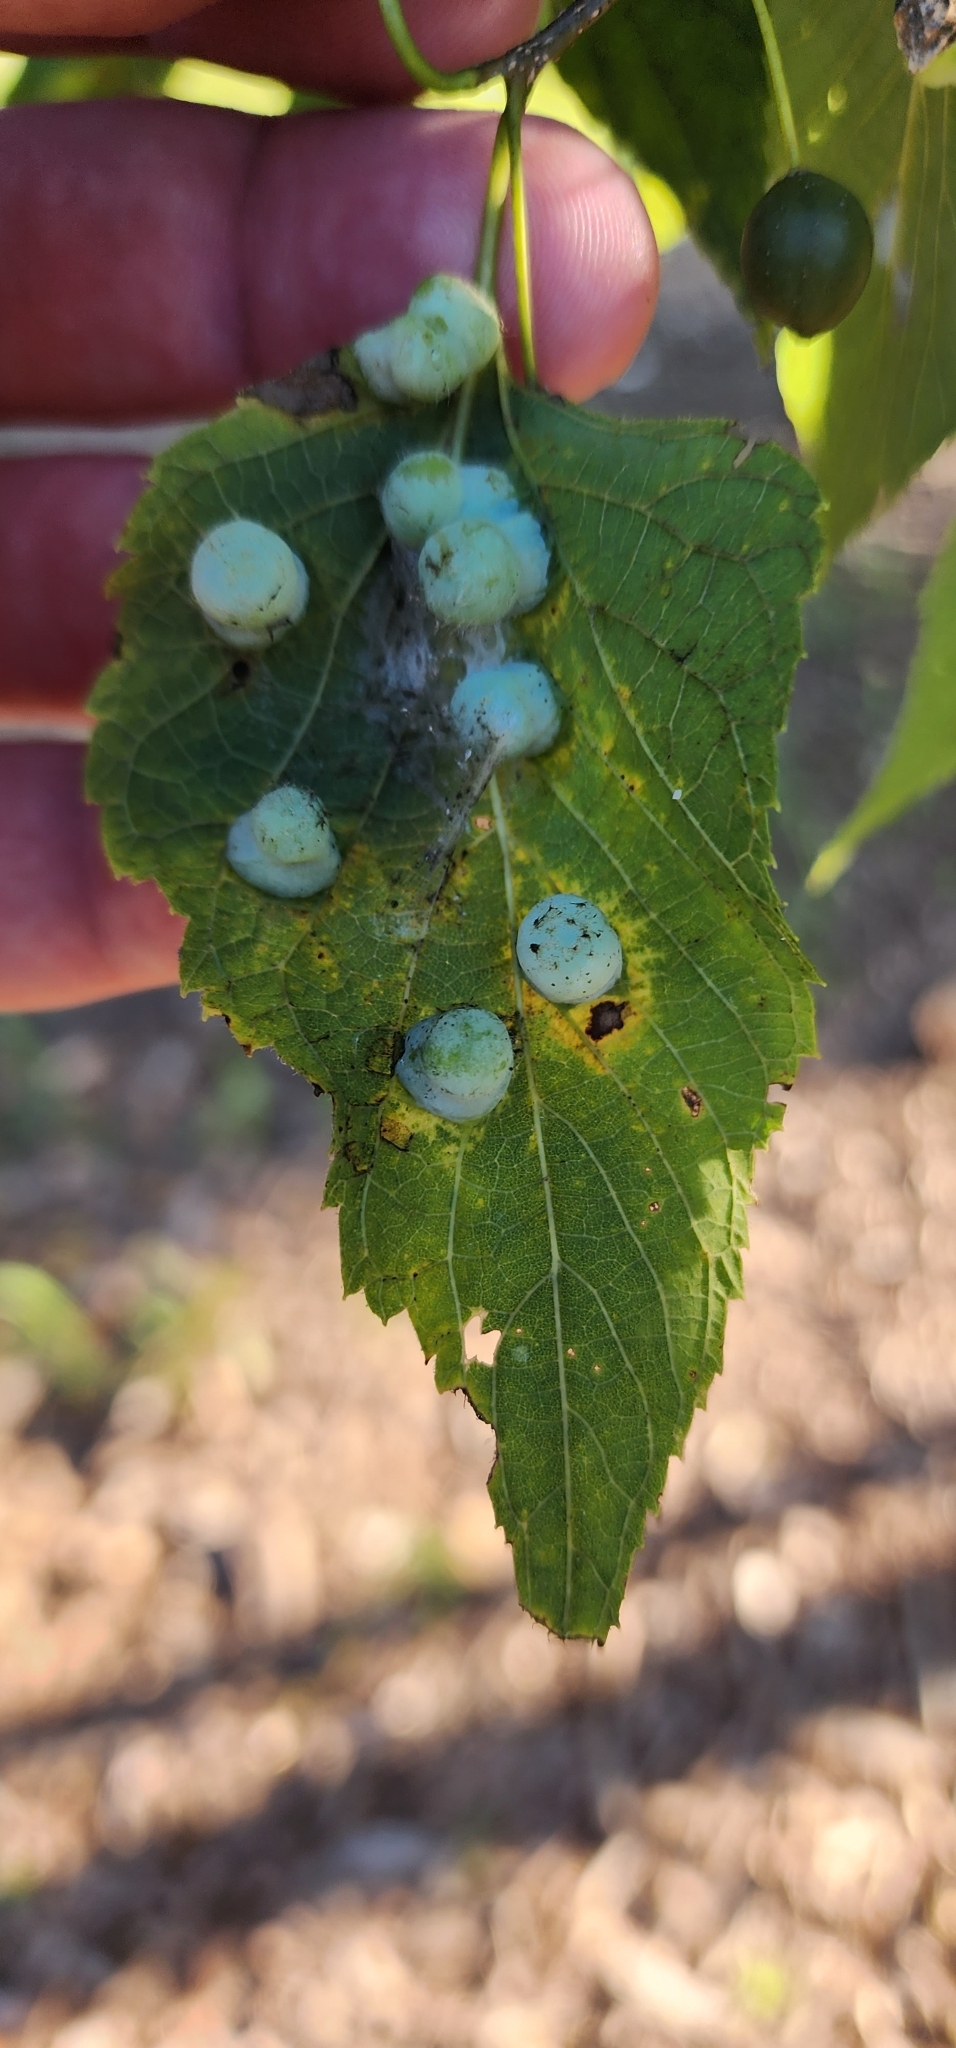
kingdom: Animalia
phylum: Arthropoda
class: Insecta
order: Hemiptera
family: Aphalaridae
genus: Pachypsylla
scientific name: Pachypsylla celtidismamma
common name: Hackberry nipplegall psyllid
